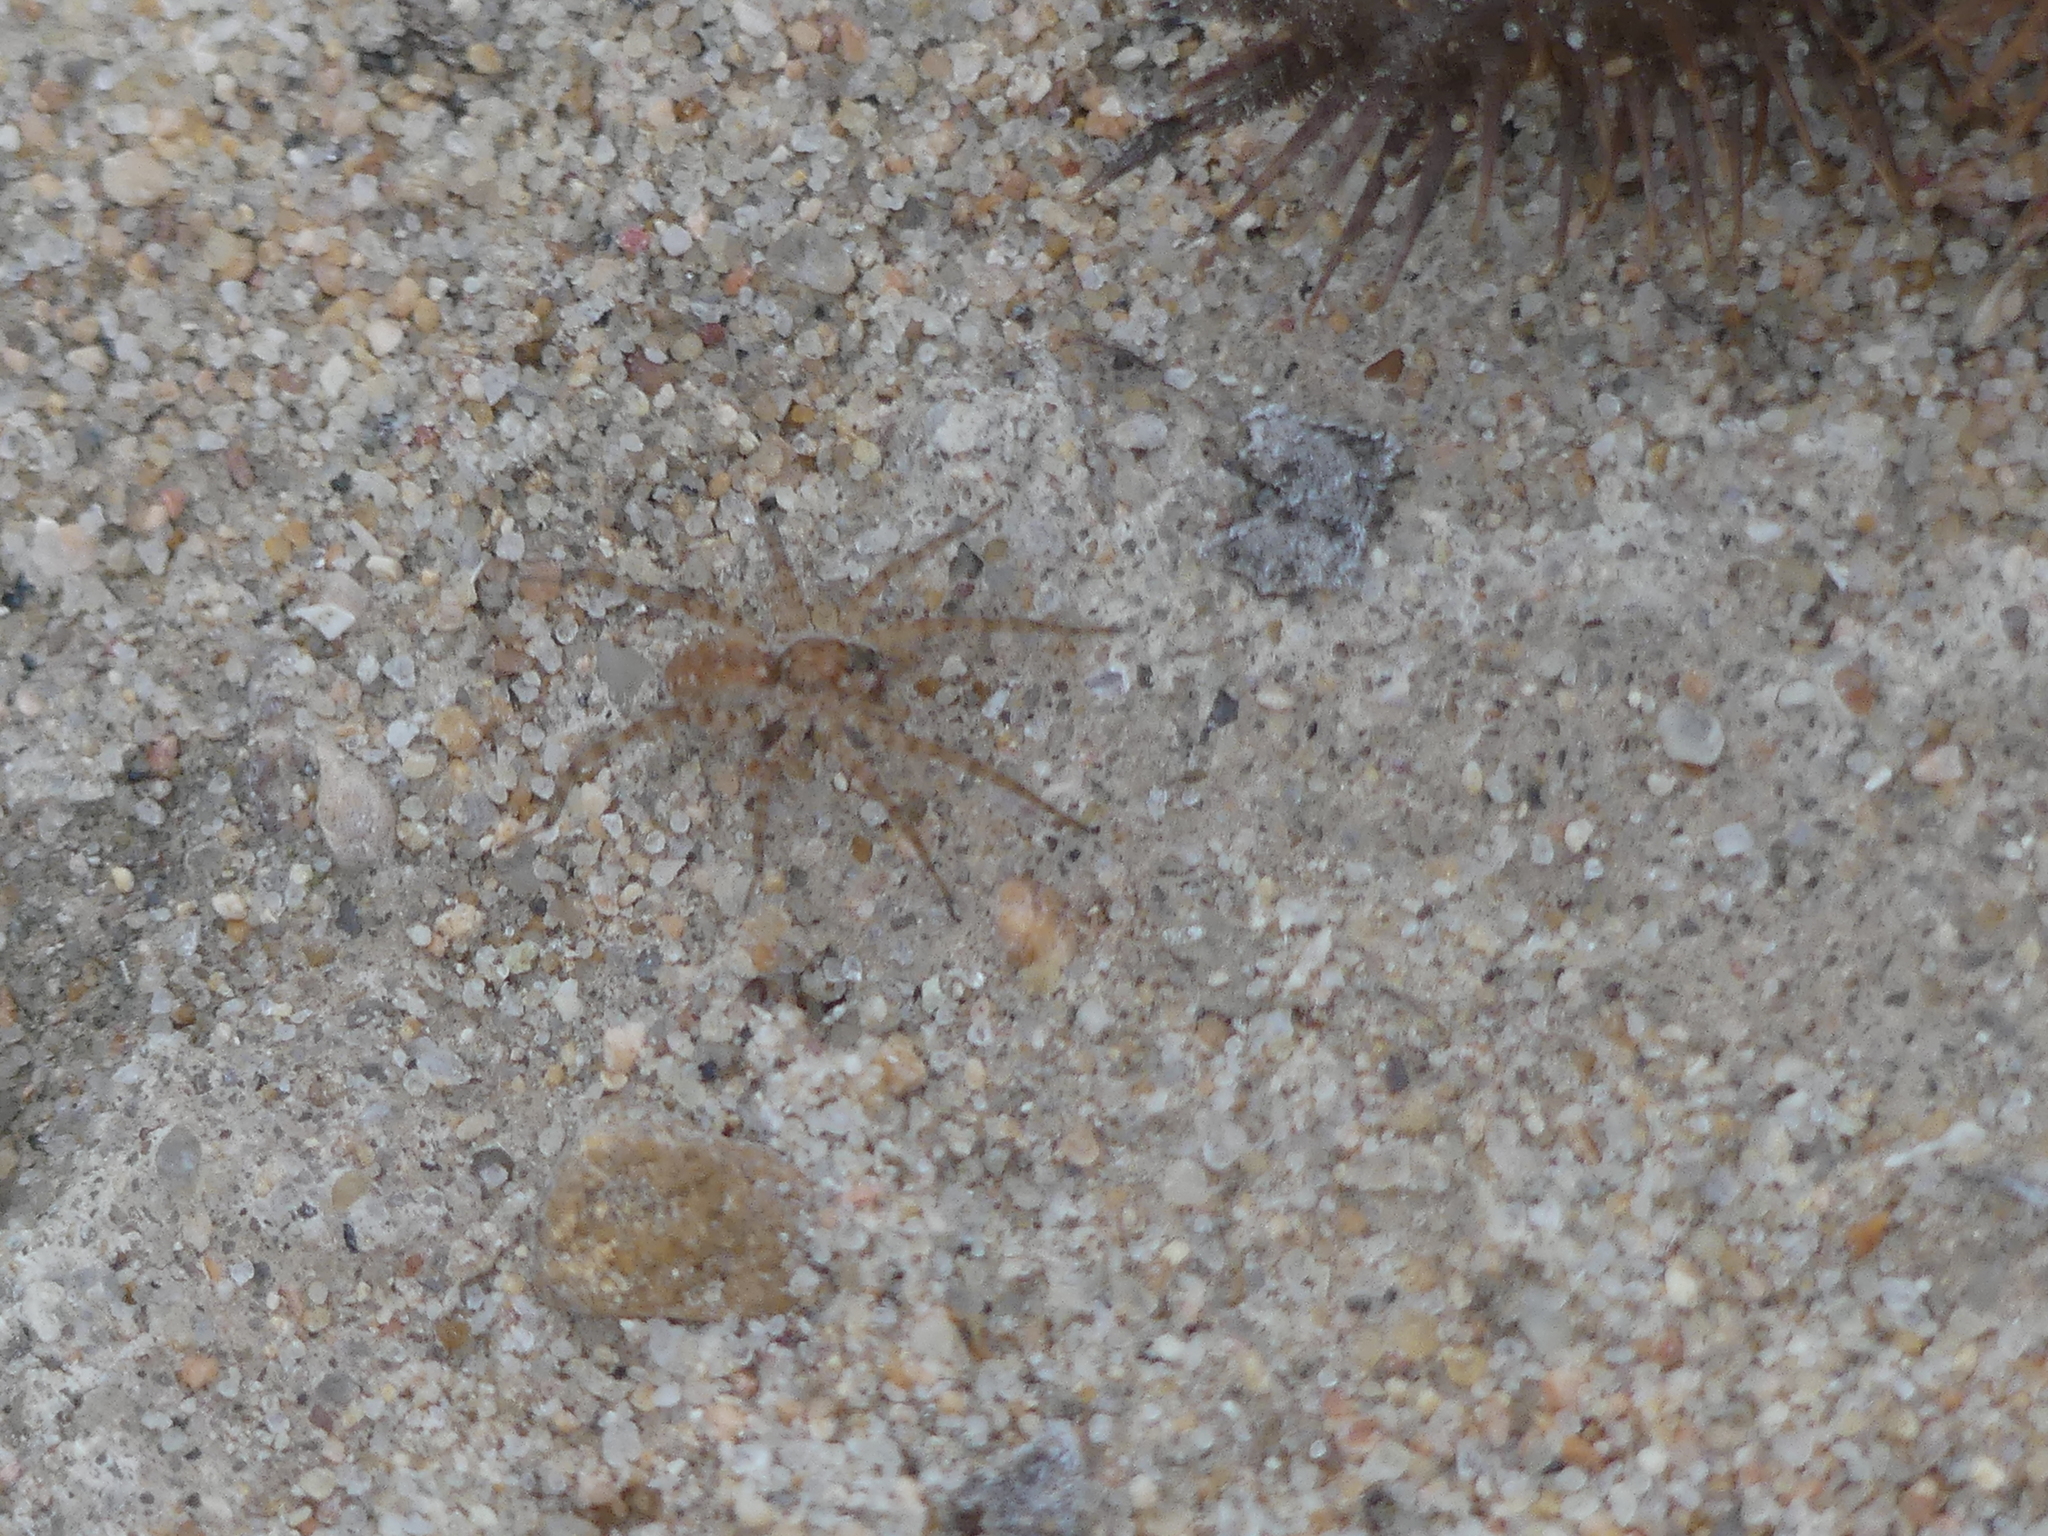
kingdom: Animalia
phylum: Arthropoda
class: Arachnida
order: Araneae
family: Lycosidae
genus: Arctosa
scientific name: Arctosa littoralis
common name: Wolf spiders
